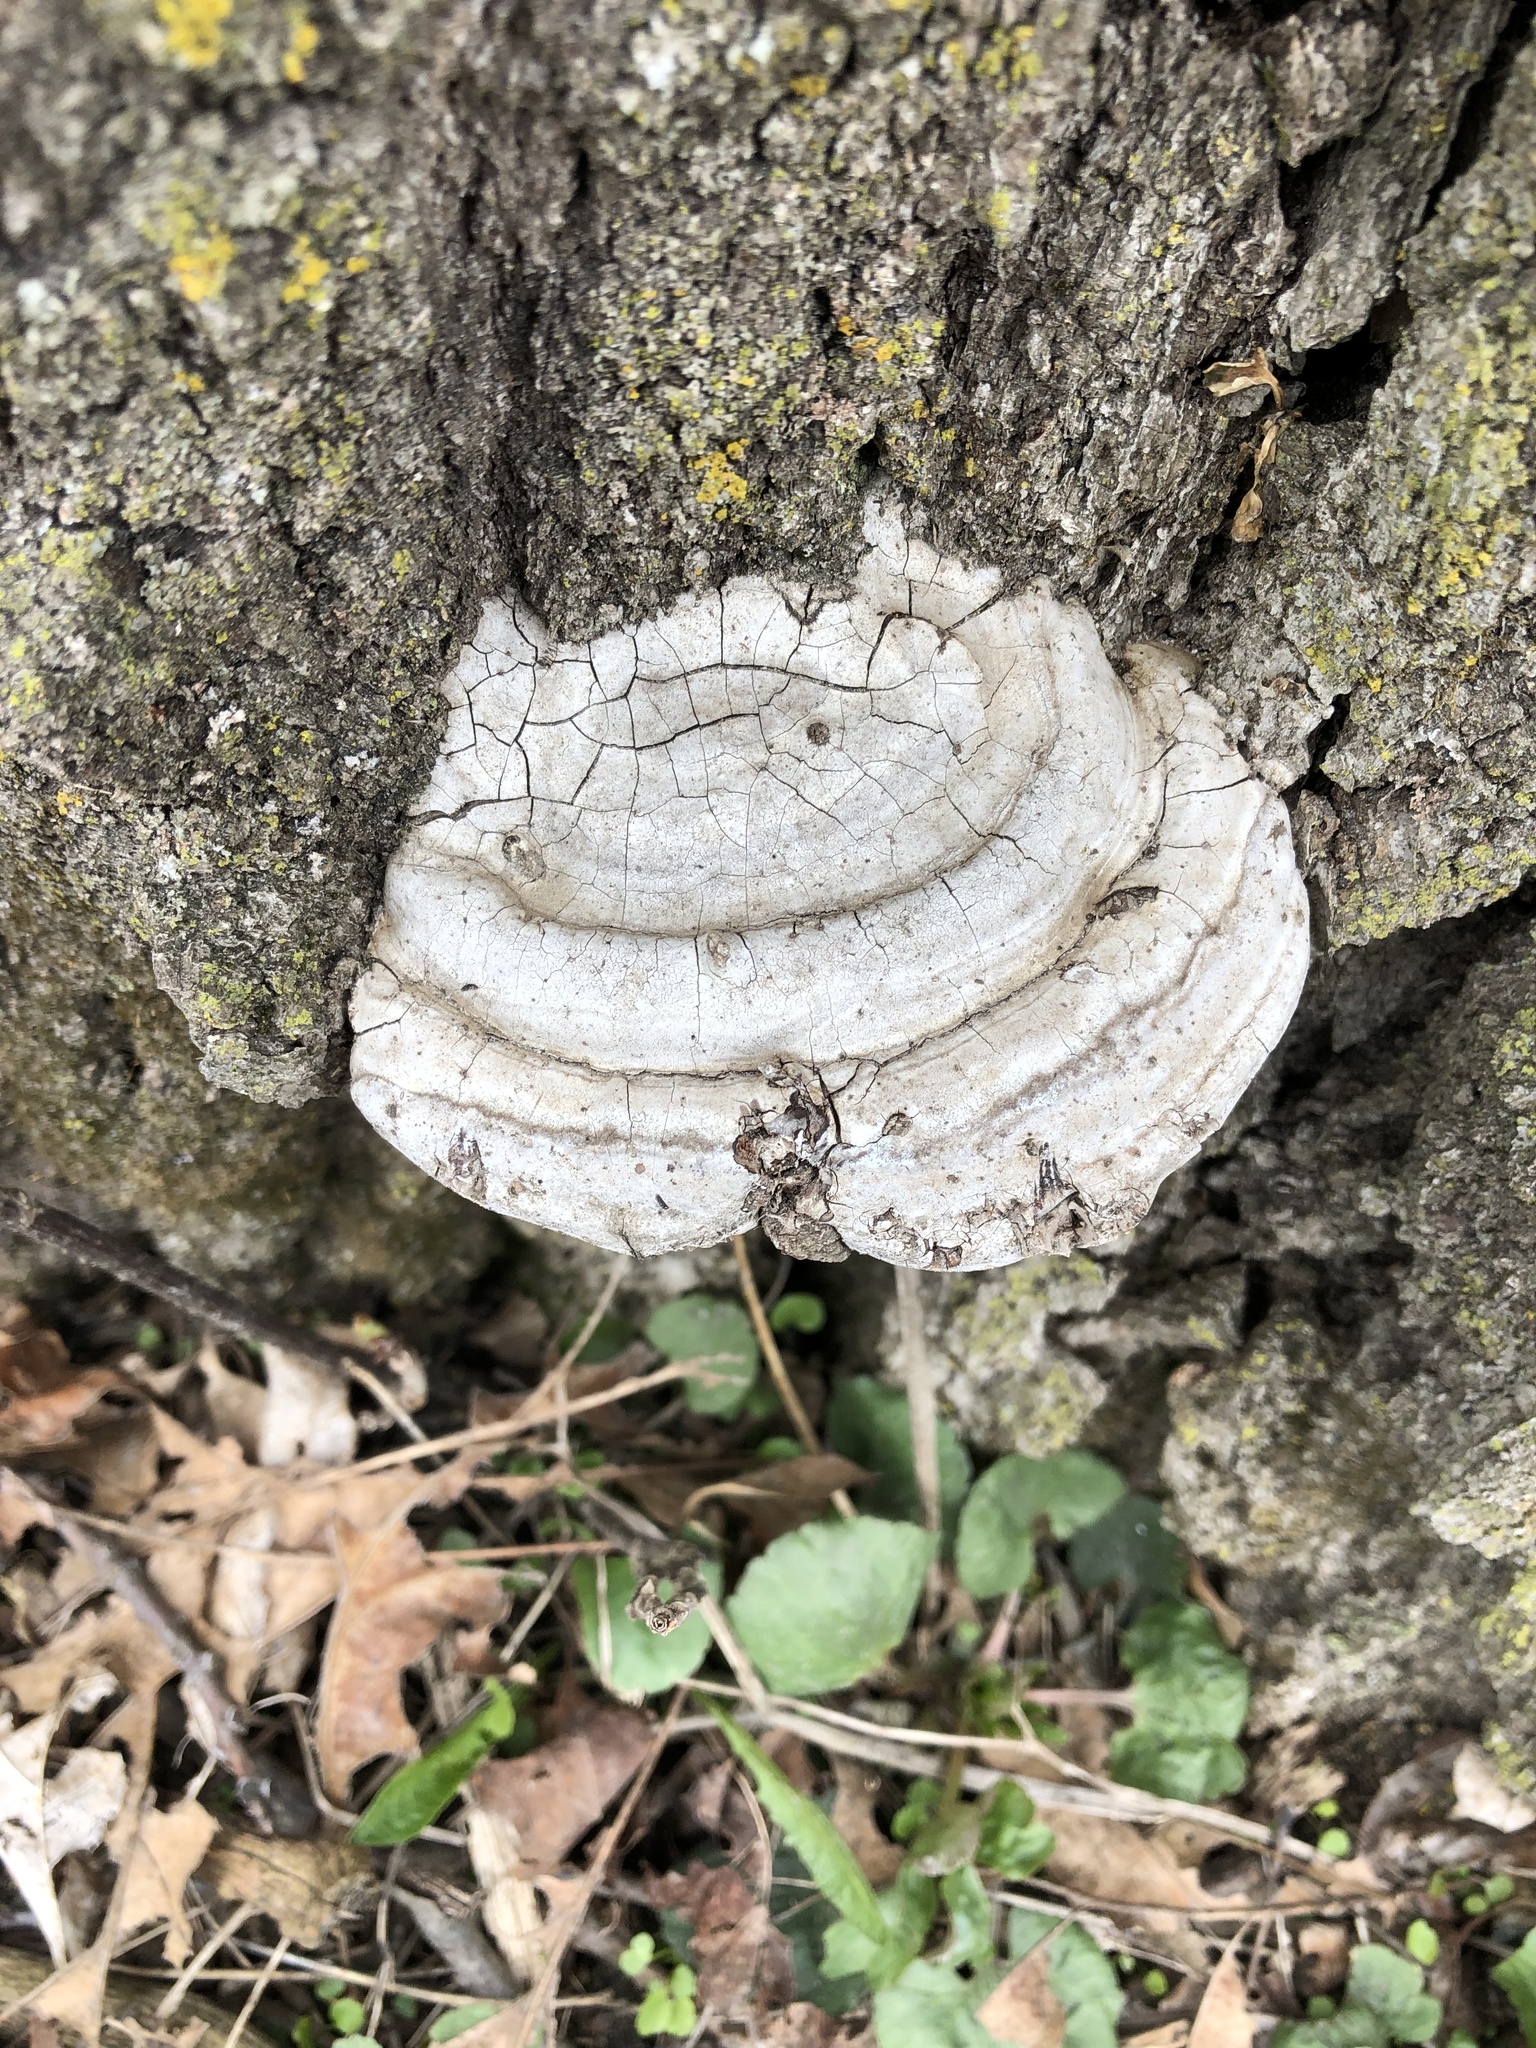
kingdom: Fungi
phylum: Basidiomycota
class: Agaricomycetes
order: Polyporales
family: Polyporaceae
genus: Fomes
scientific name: Fomes fomentarius
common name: Hoof fungus
